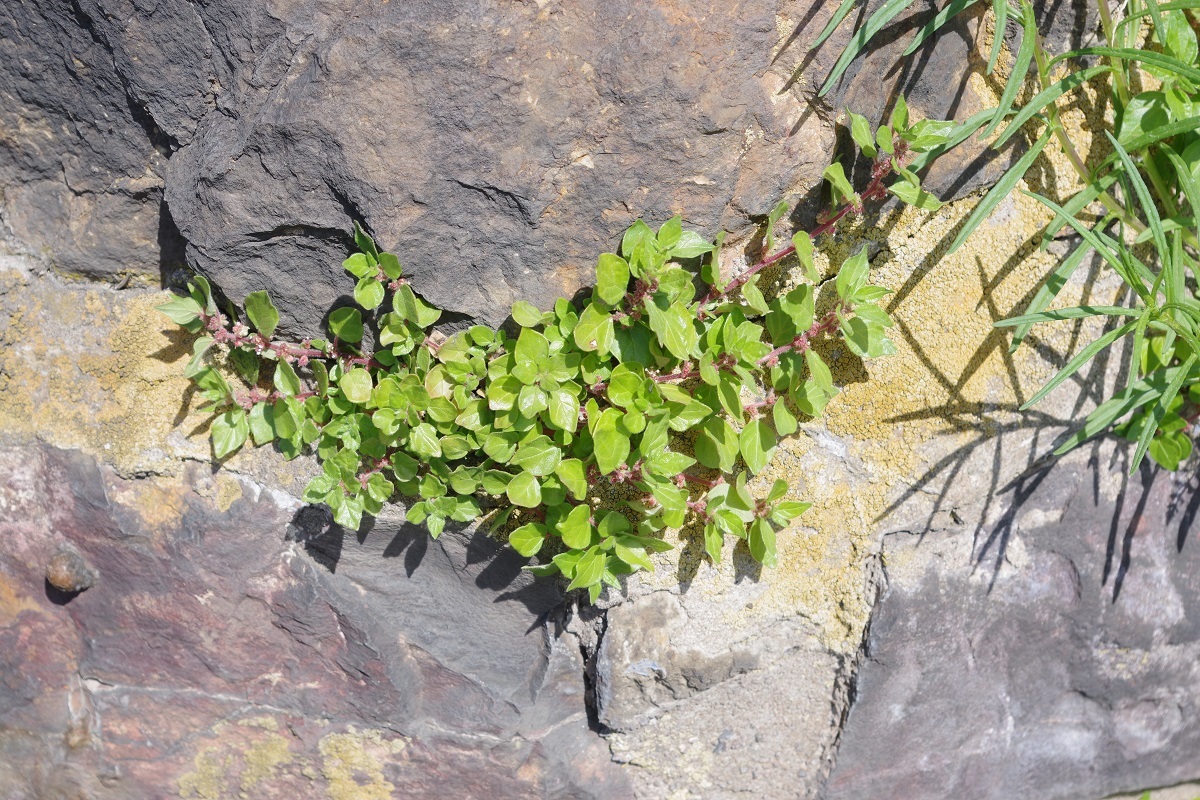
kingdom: Plantae
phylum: Tracheophyta
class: Magnoliopsida
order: Rosales
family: Urticaceae
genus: Parietaria
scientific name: Parietaria judaica
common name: Pellitory-of-the-wall
